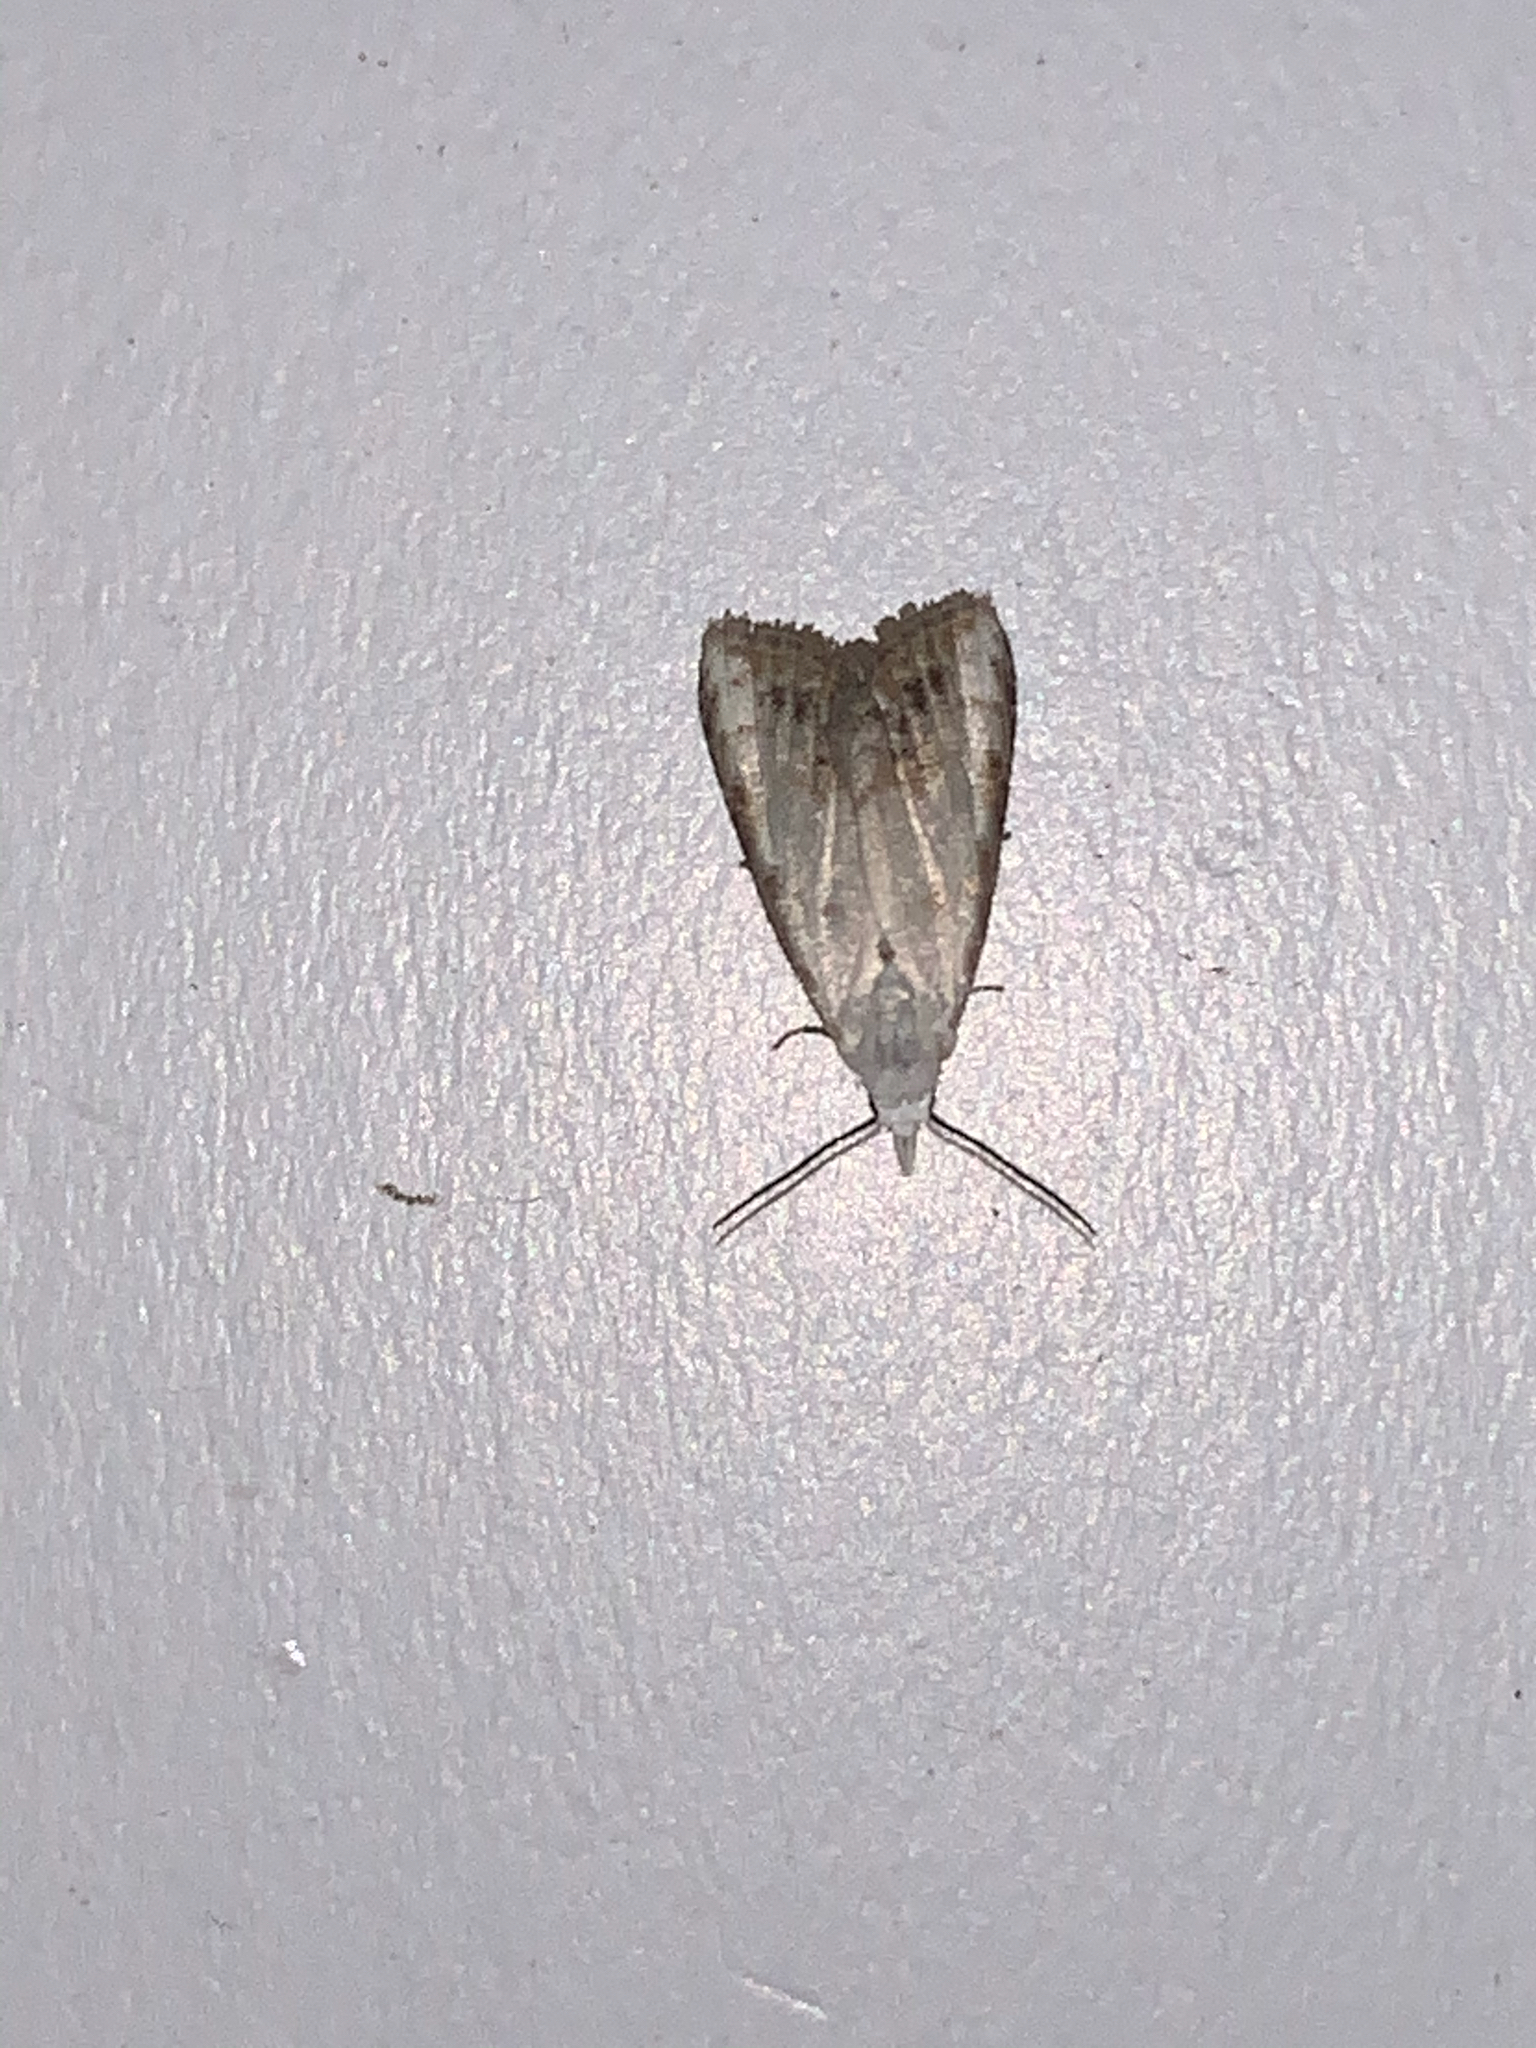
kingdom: Animalia
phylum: Arthropoda
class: Insecta
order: Lepidoptera
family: Nolidae
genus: Nola
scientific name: Nola cereella
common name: Sorghum webworm moth
